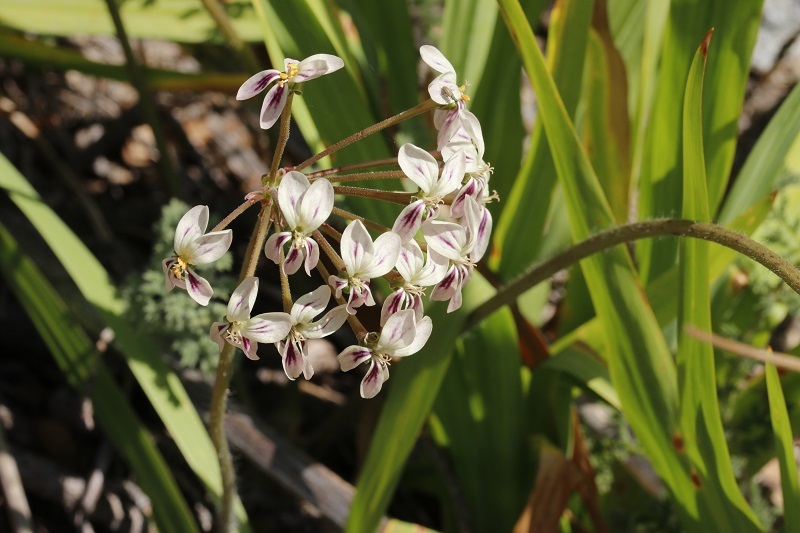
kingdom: Plantae
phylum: Tracheophyta
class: Magnoliopsida
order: Geraniales
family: Geraniaceae
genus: Pelargonium
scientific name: Pelargonium triste
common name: Night-scent pelargonium
